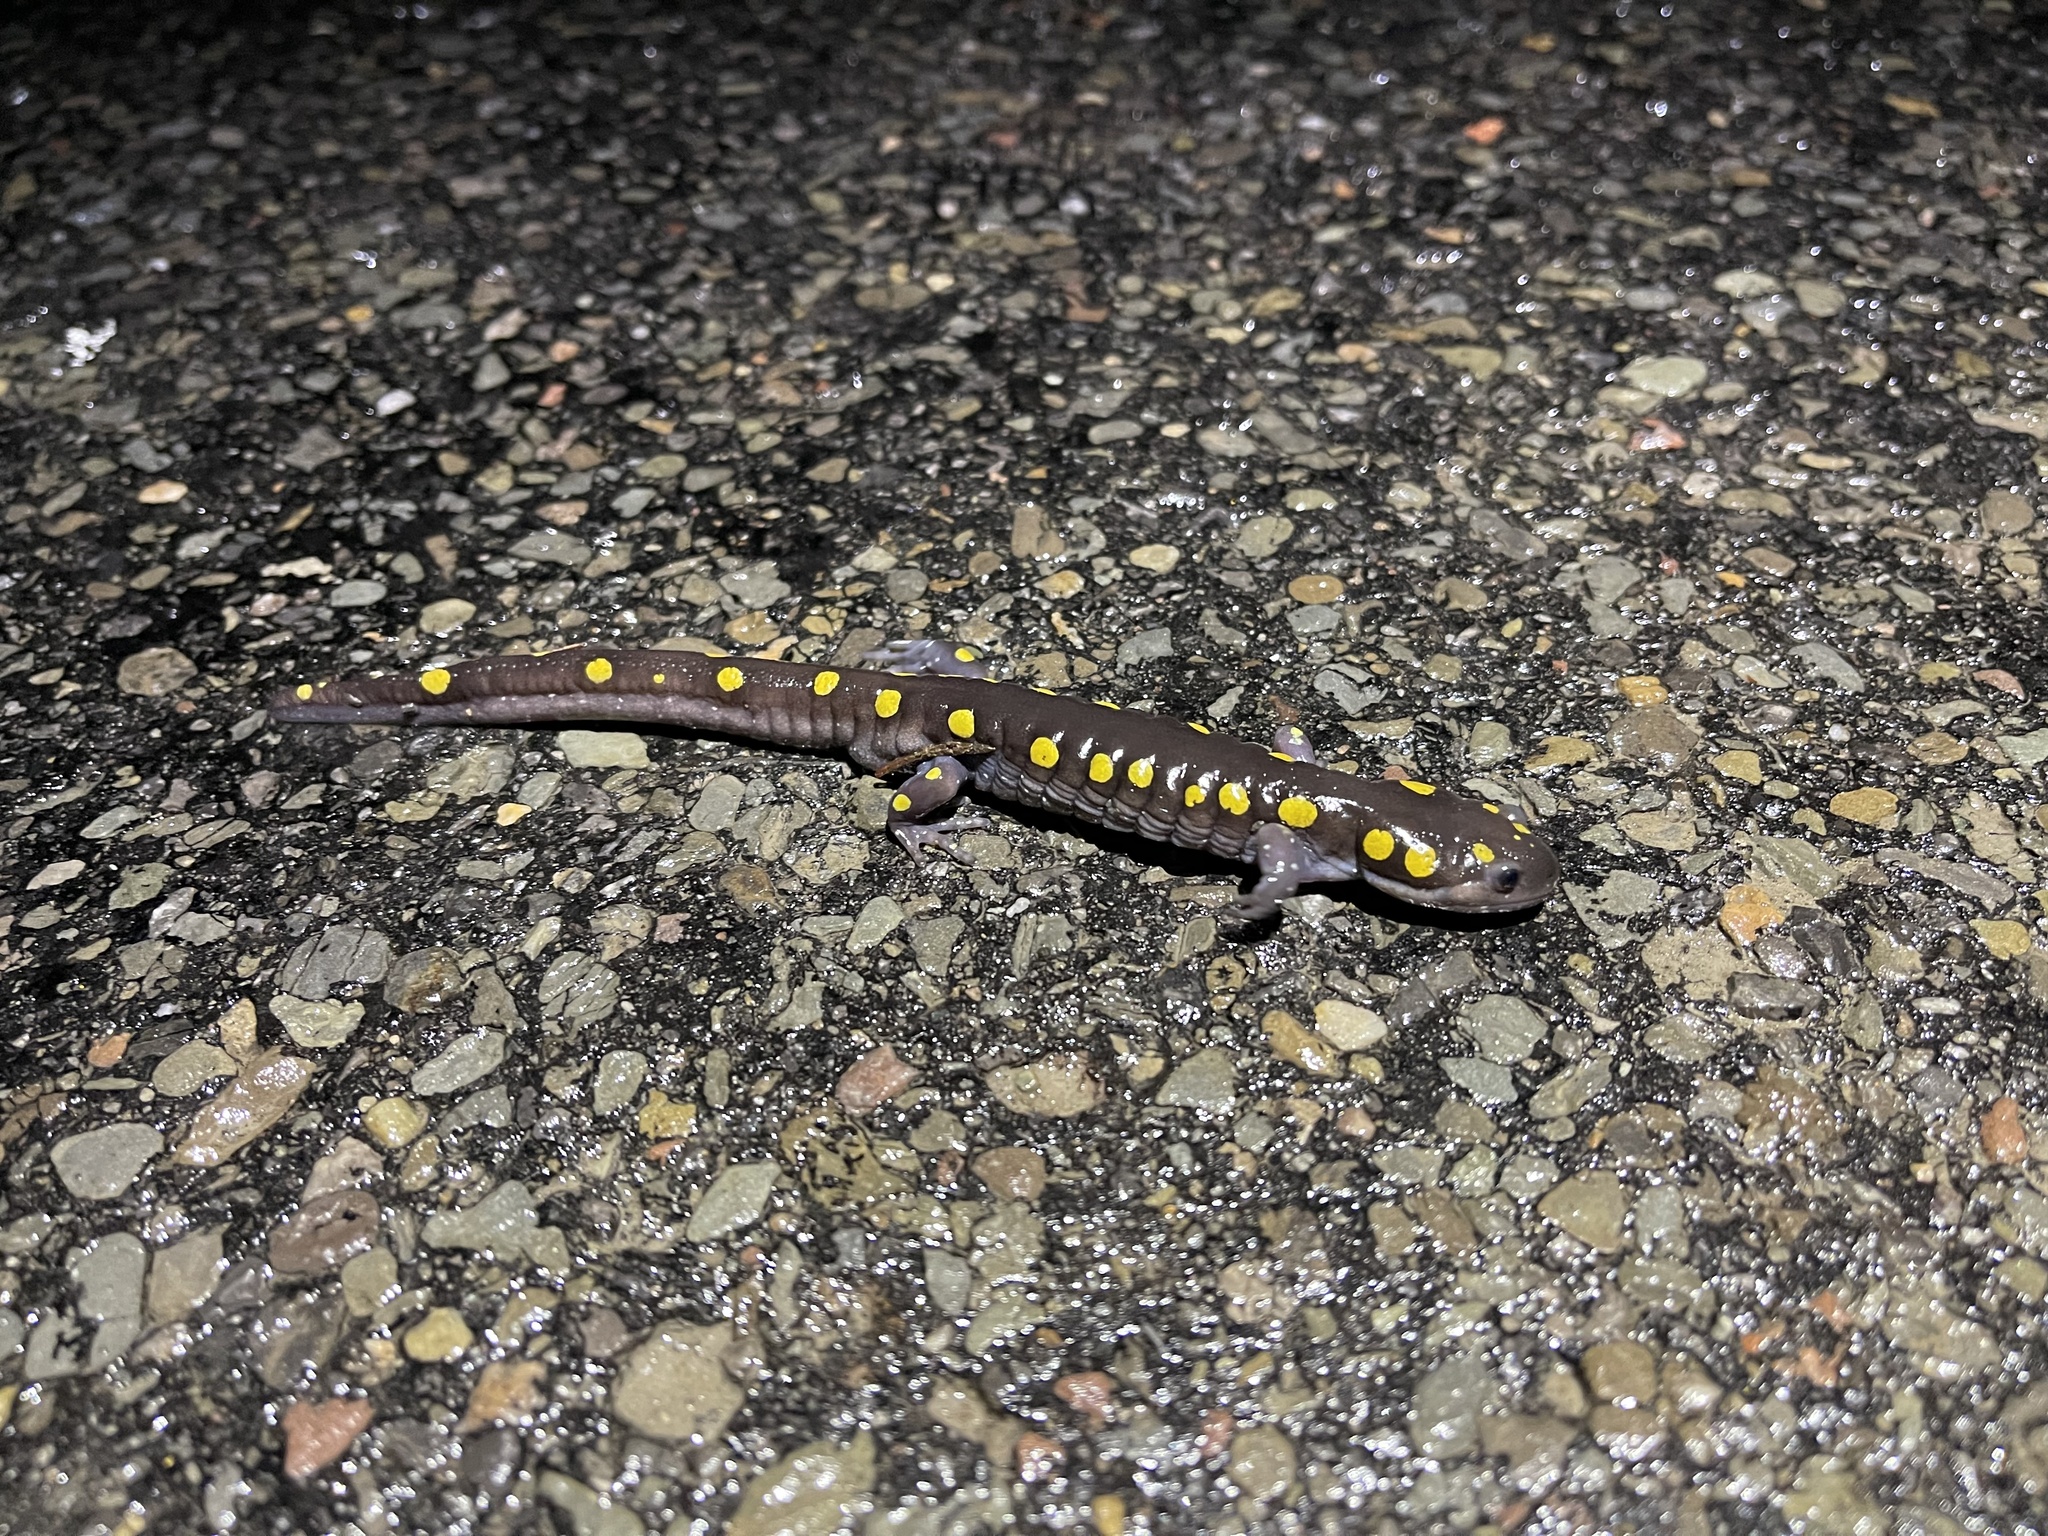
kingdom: Animalia
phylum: Chordata
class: Amphibia
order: Caudata
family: Ambystomatidae
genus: Ambystoma
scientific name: Ambystoma maculatum
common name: Spotted salamander
